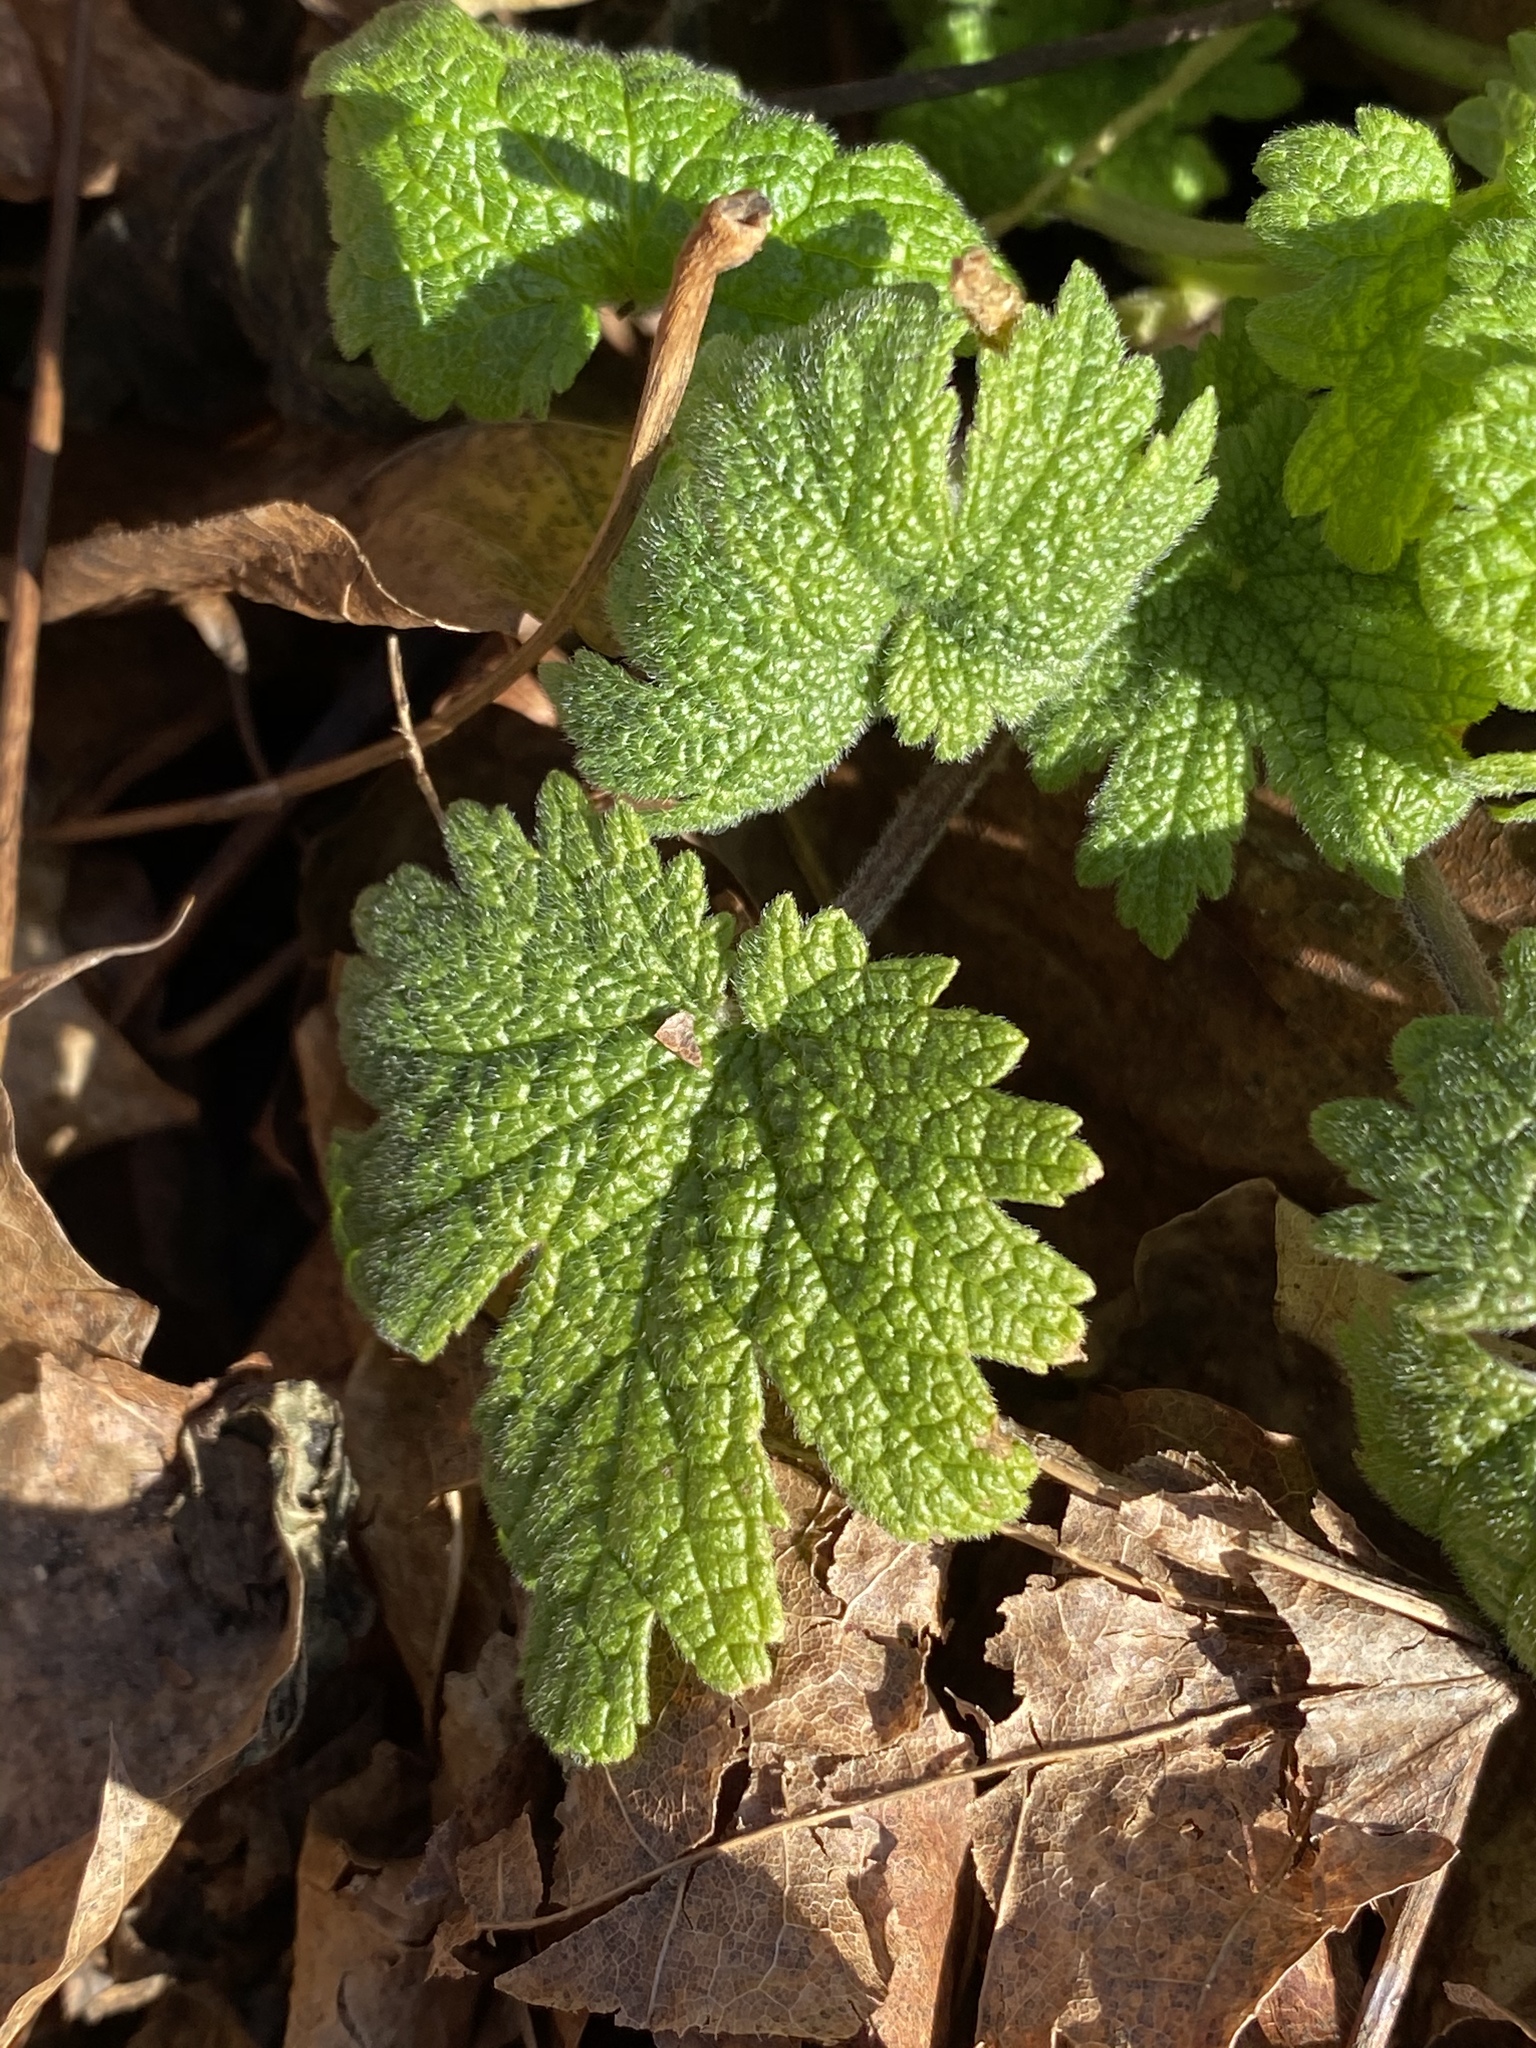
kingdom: Plantae
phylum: Tracheophyta
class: Magnoliopsida
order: Lamiales
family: Lamiaceae
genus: Leonurus
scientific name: Leonurus cardiaca
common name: Motherwort
